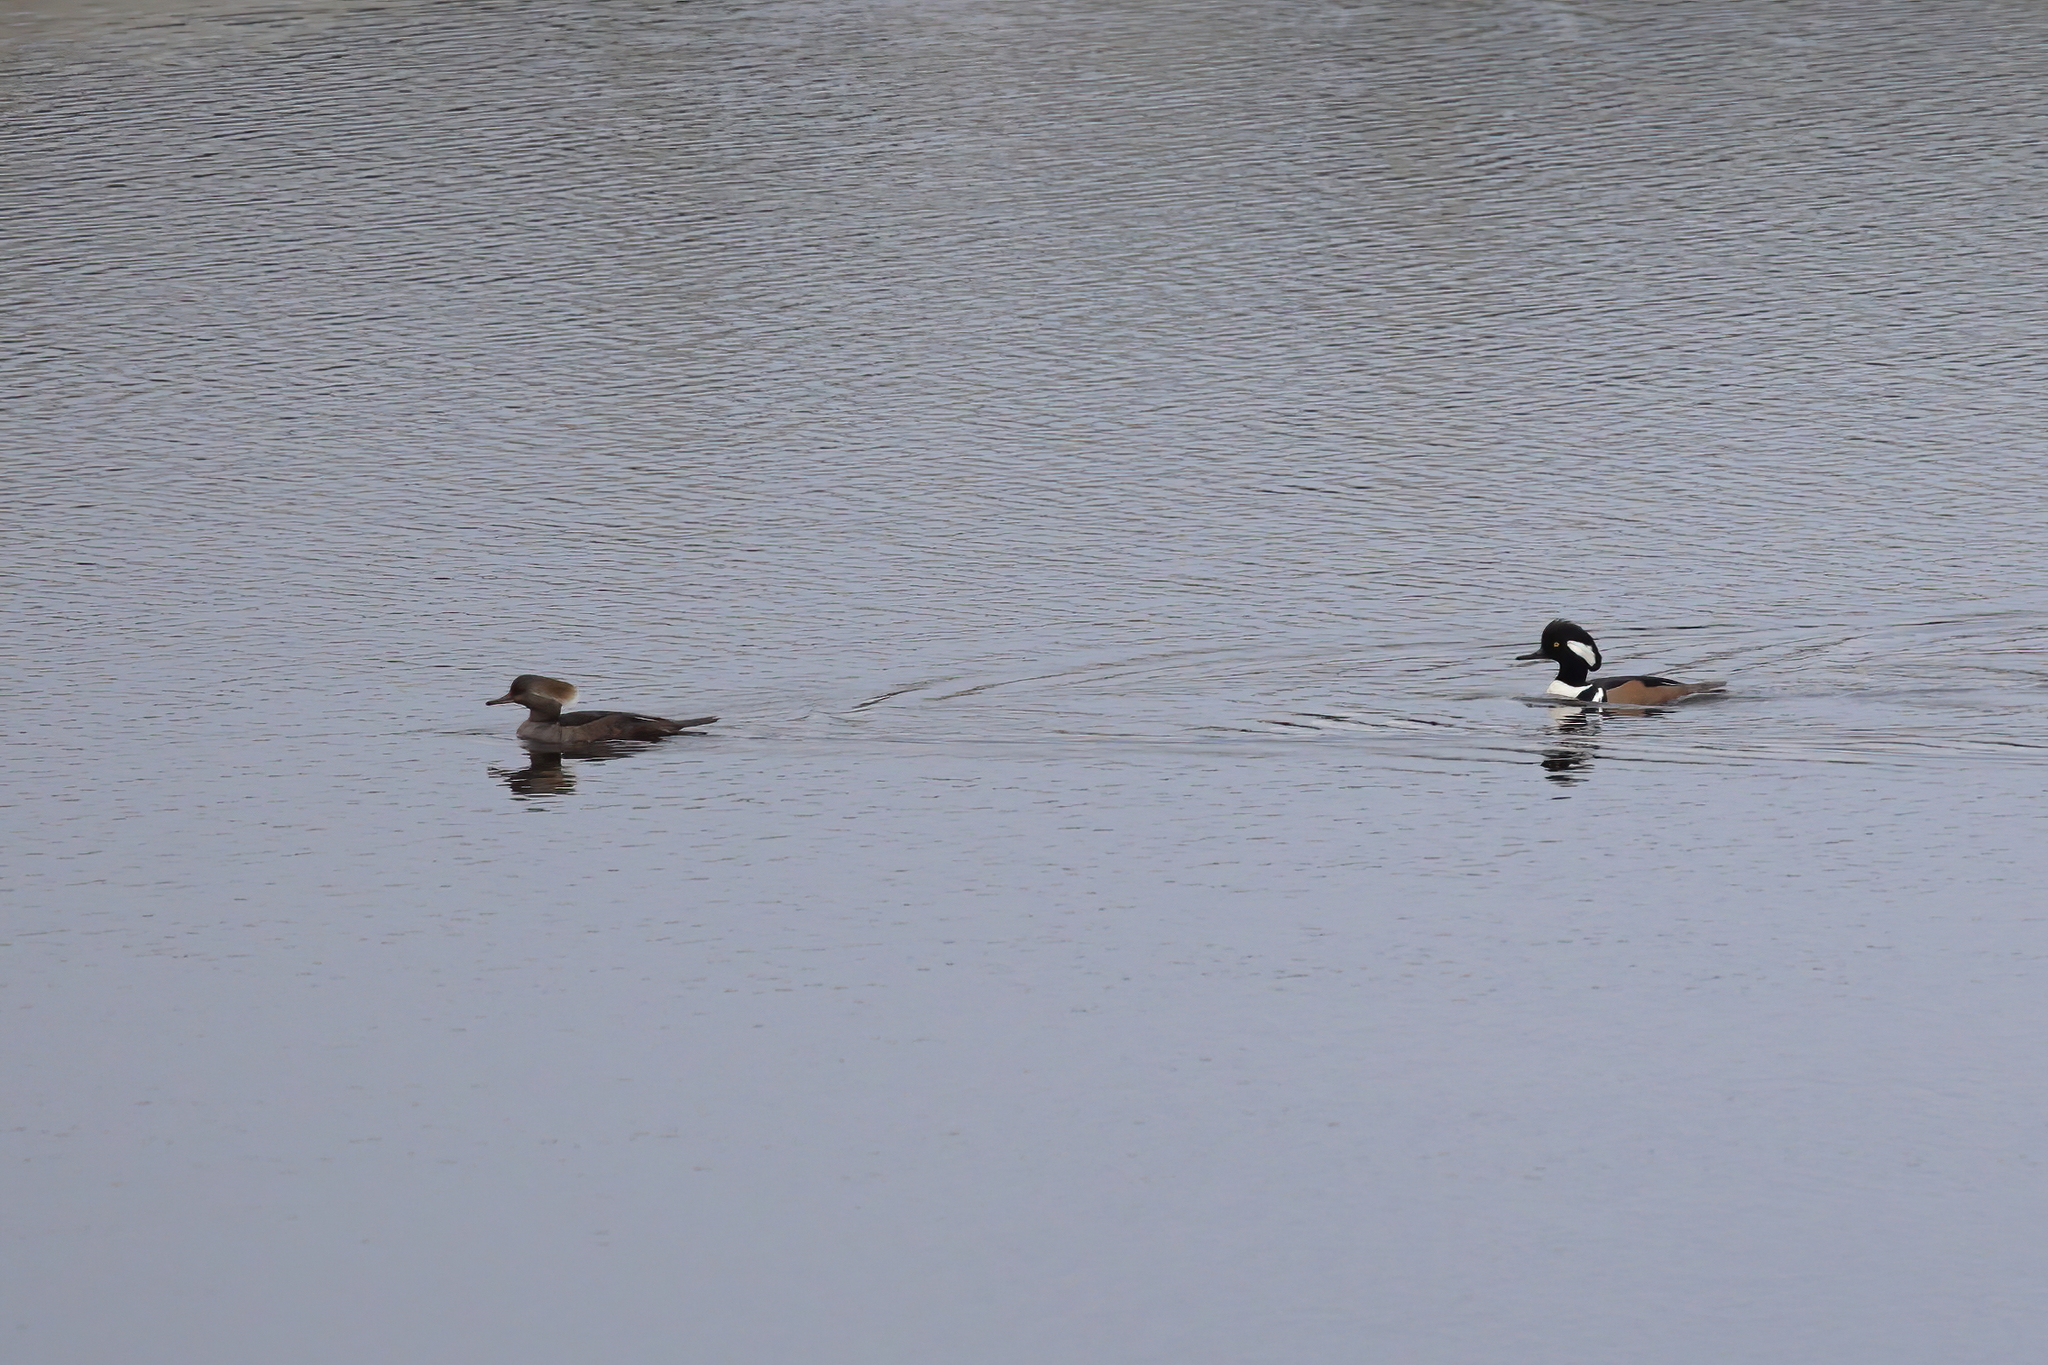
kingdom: Animalia
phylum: Chordata
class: Aves
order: Anseriformes
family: Anatidae
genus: Lophodytes
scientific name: Lophodytes cucullatus
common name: Hooded merganser
